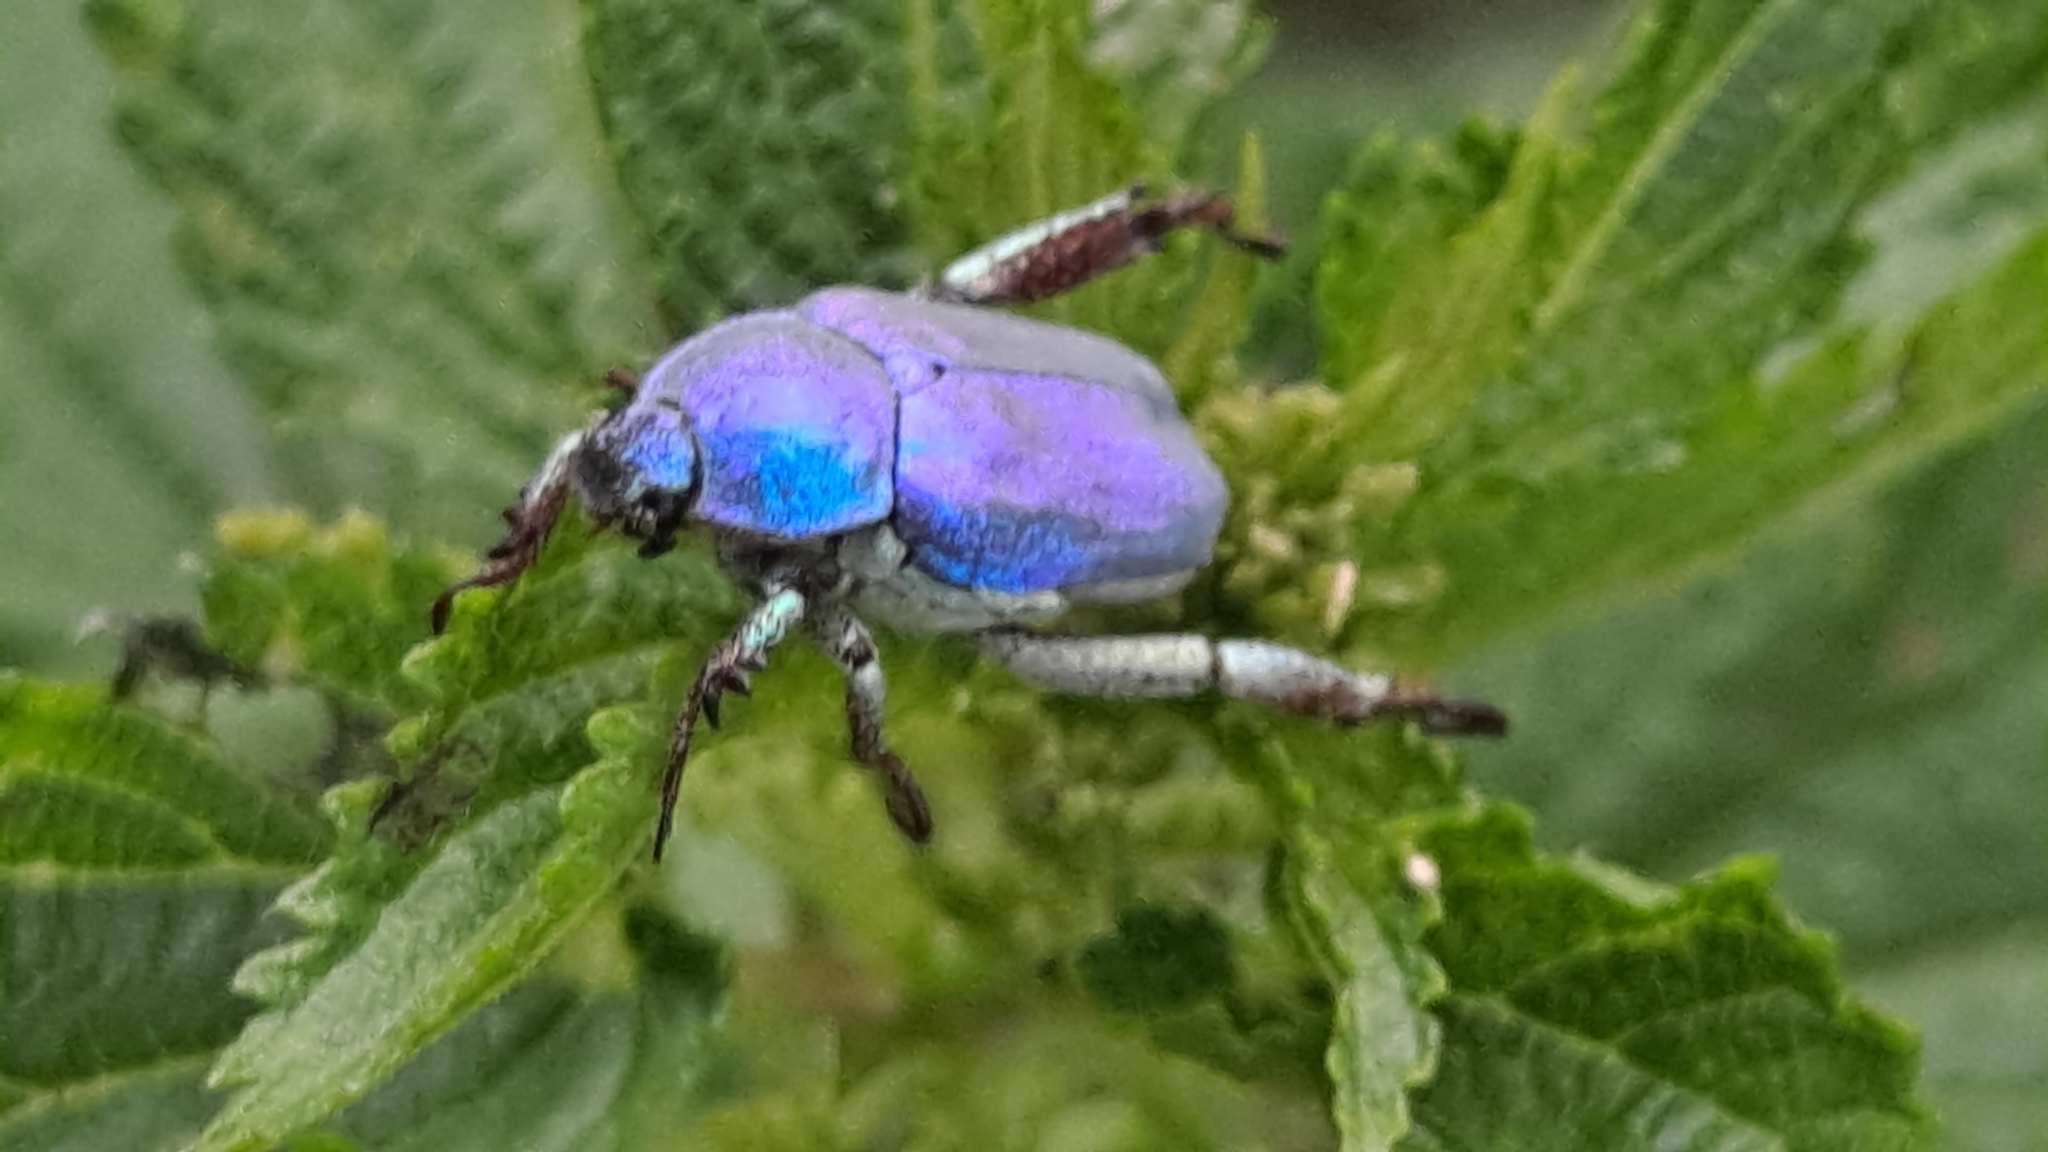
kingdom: Animalia
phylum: Arthropoda
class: Insecta
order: Coleoptera
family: Scarabaeidae
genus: Hoplia
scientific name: Hoplia coerulea
